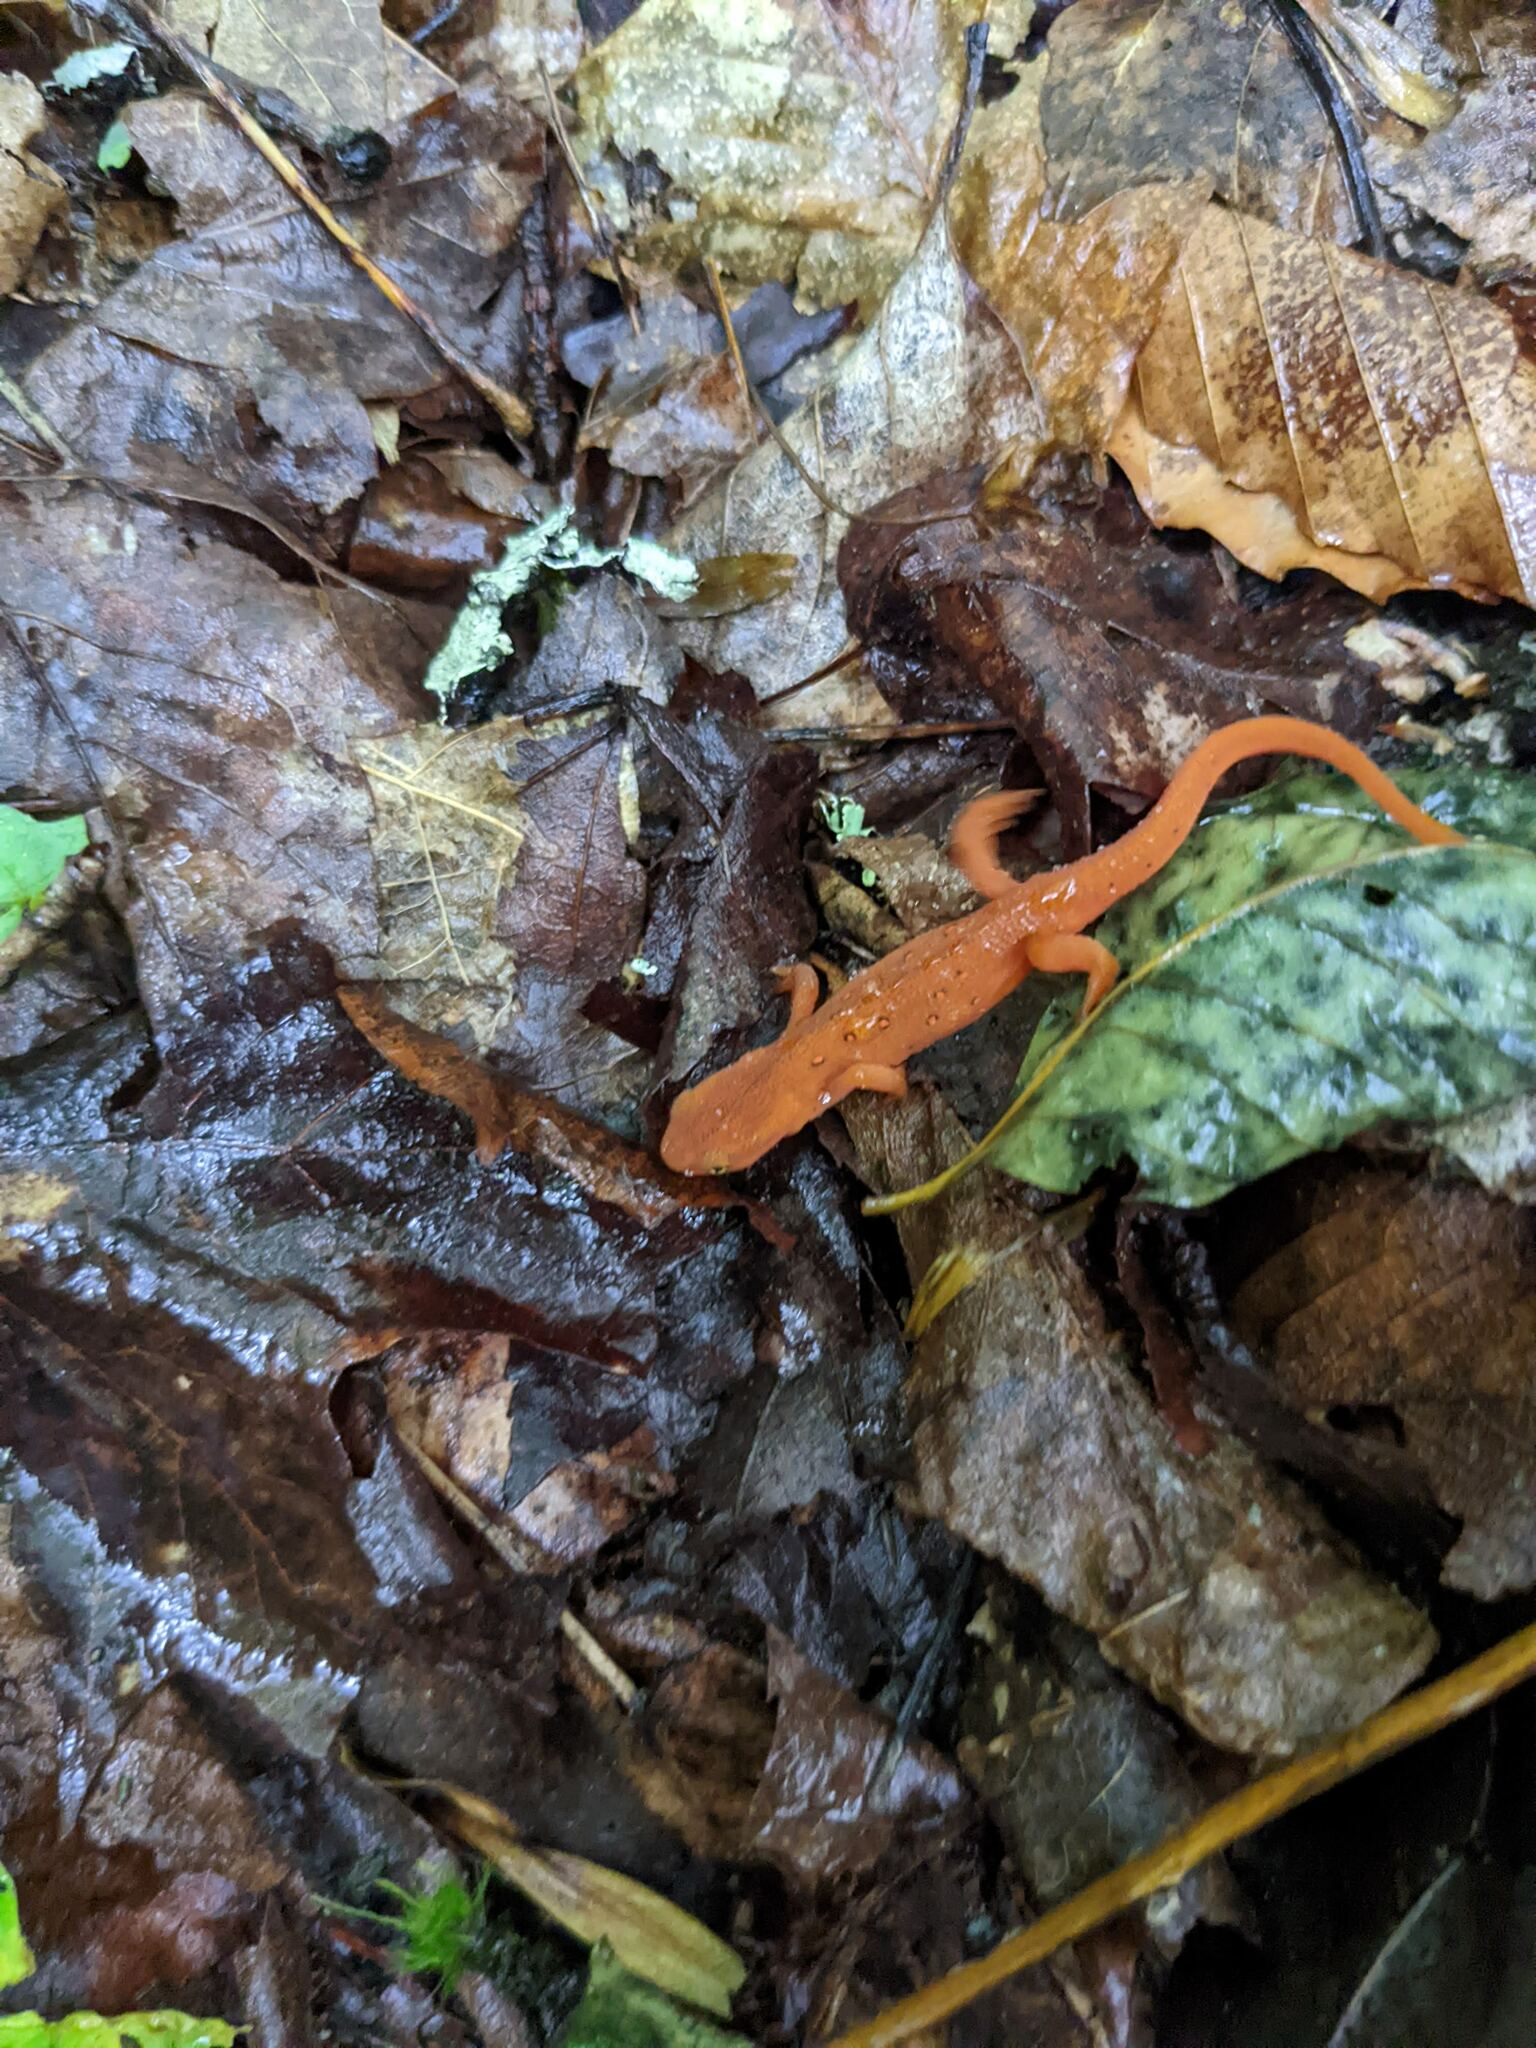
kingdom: Animalia
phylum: Chordata
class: Amphibia
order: Caudata
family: Salamandridae
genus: Notophthalmus
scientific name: Notophthalmus viridescens
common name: Eastern newt
